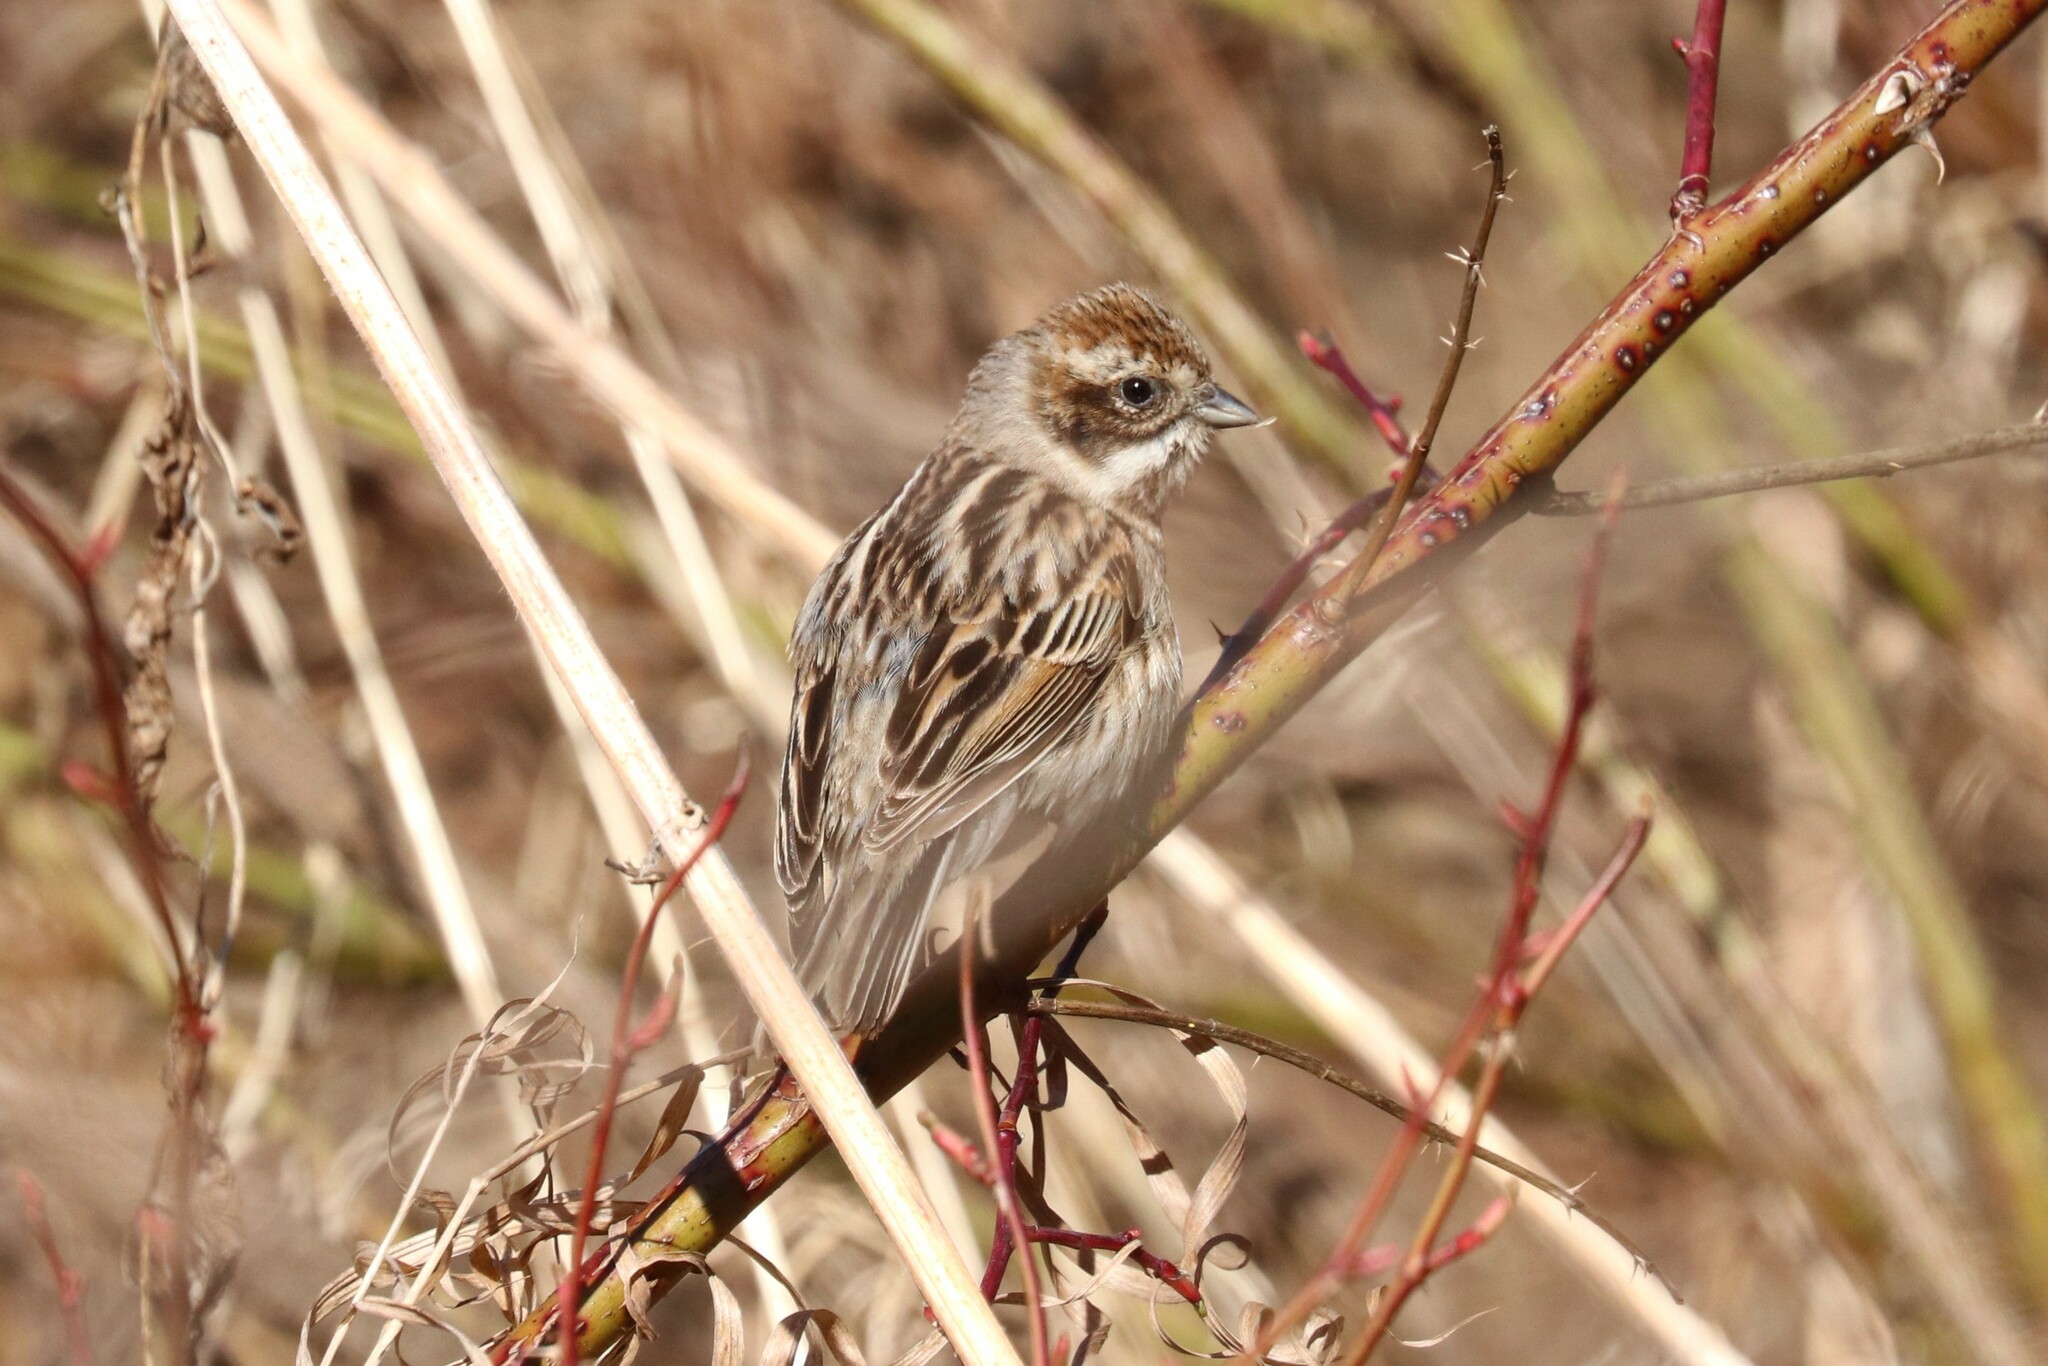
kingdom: Animalia
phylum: Chordata
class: Aves
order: Passeriformes
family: Emberizidae
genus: Emberiza
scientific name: Emberiza schoeniclus
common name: Reed bunting
